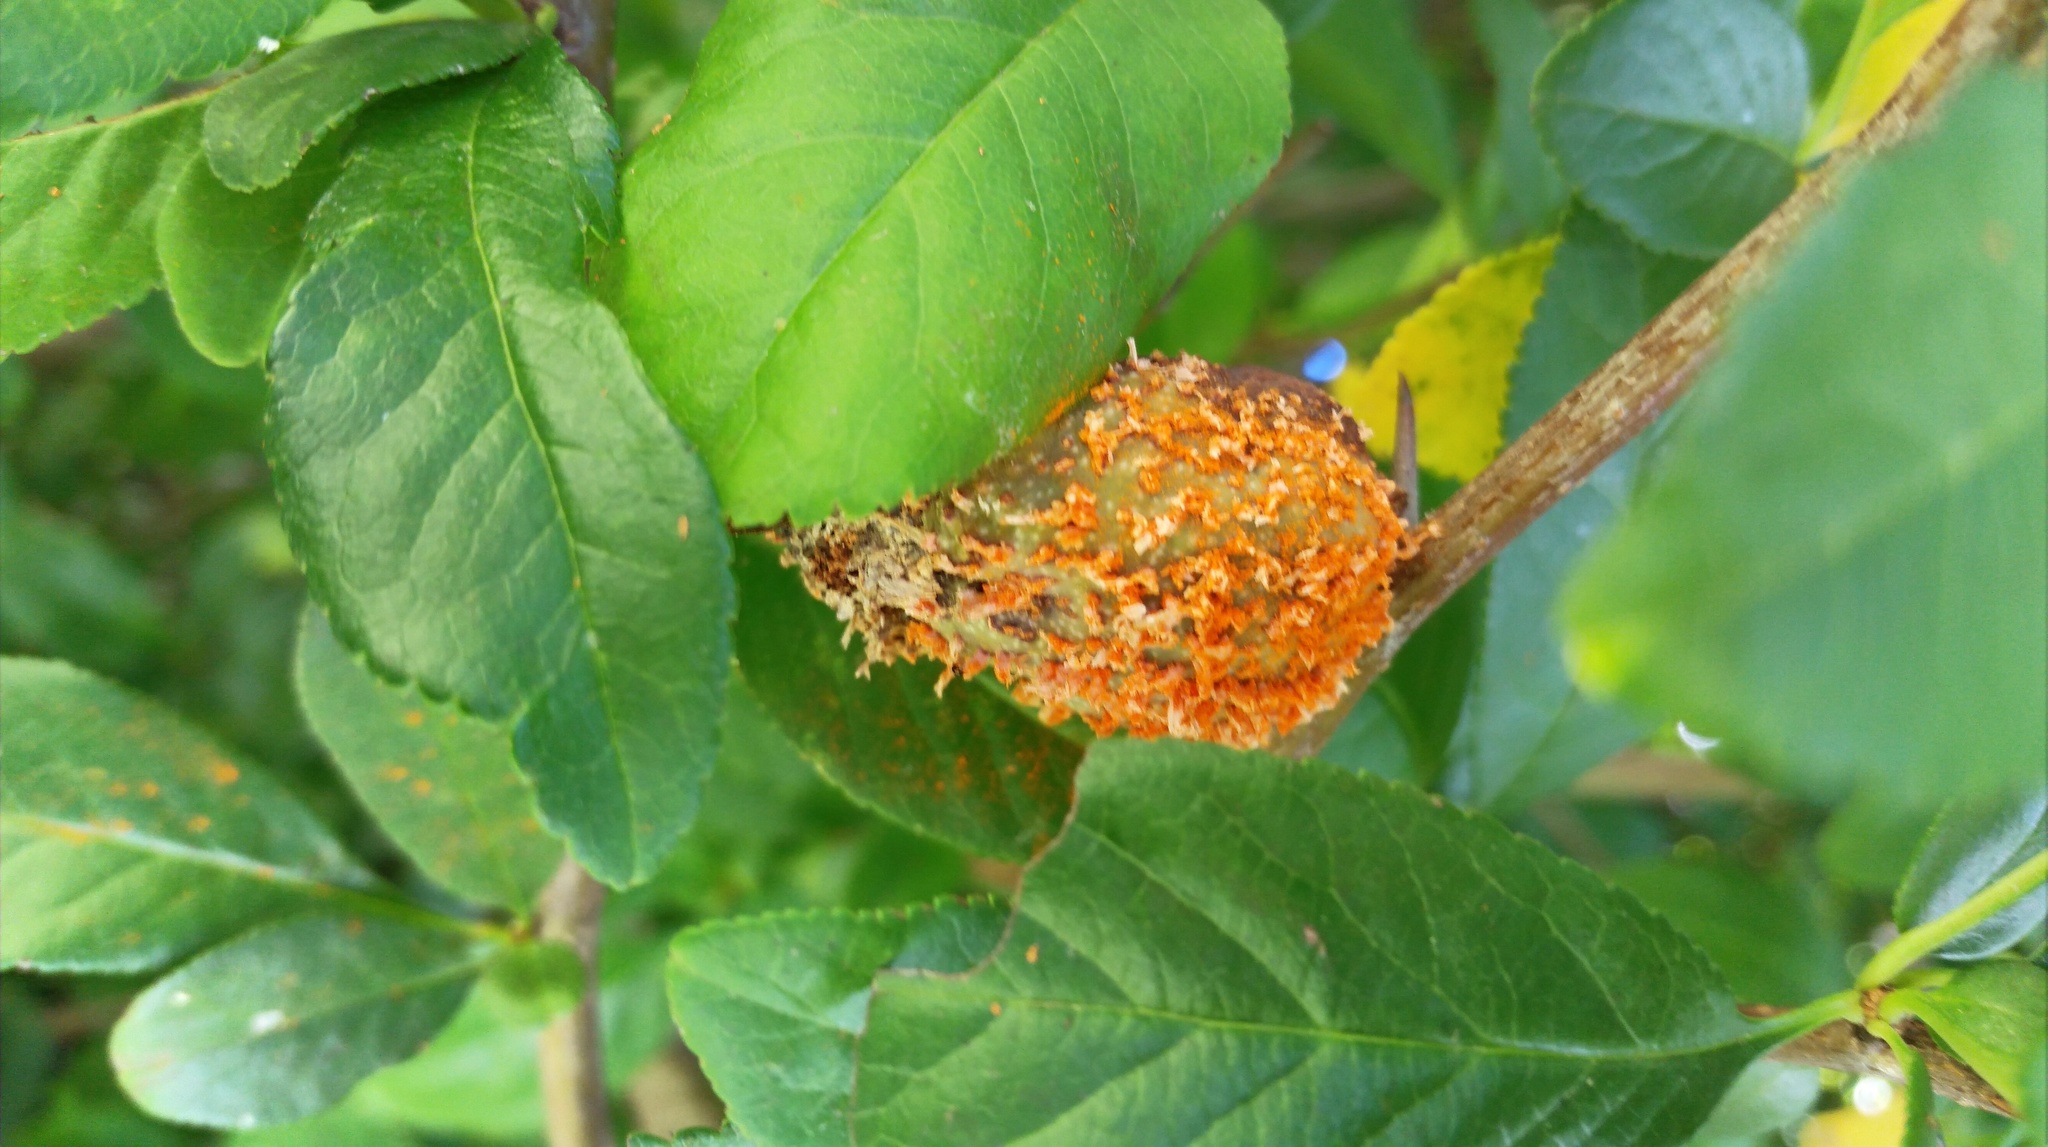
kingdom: Fungi
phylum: Basidiomycota
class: Pucciniomycetes
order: Pucciniales
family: Gymnosporangiaceae
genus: Gymnosporangium
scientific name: Gymnosporangium clavipes
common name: Quince rust
